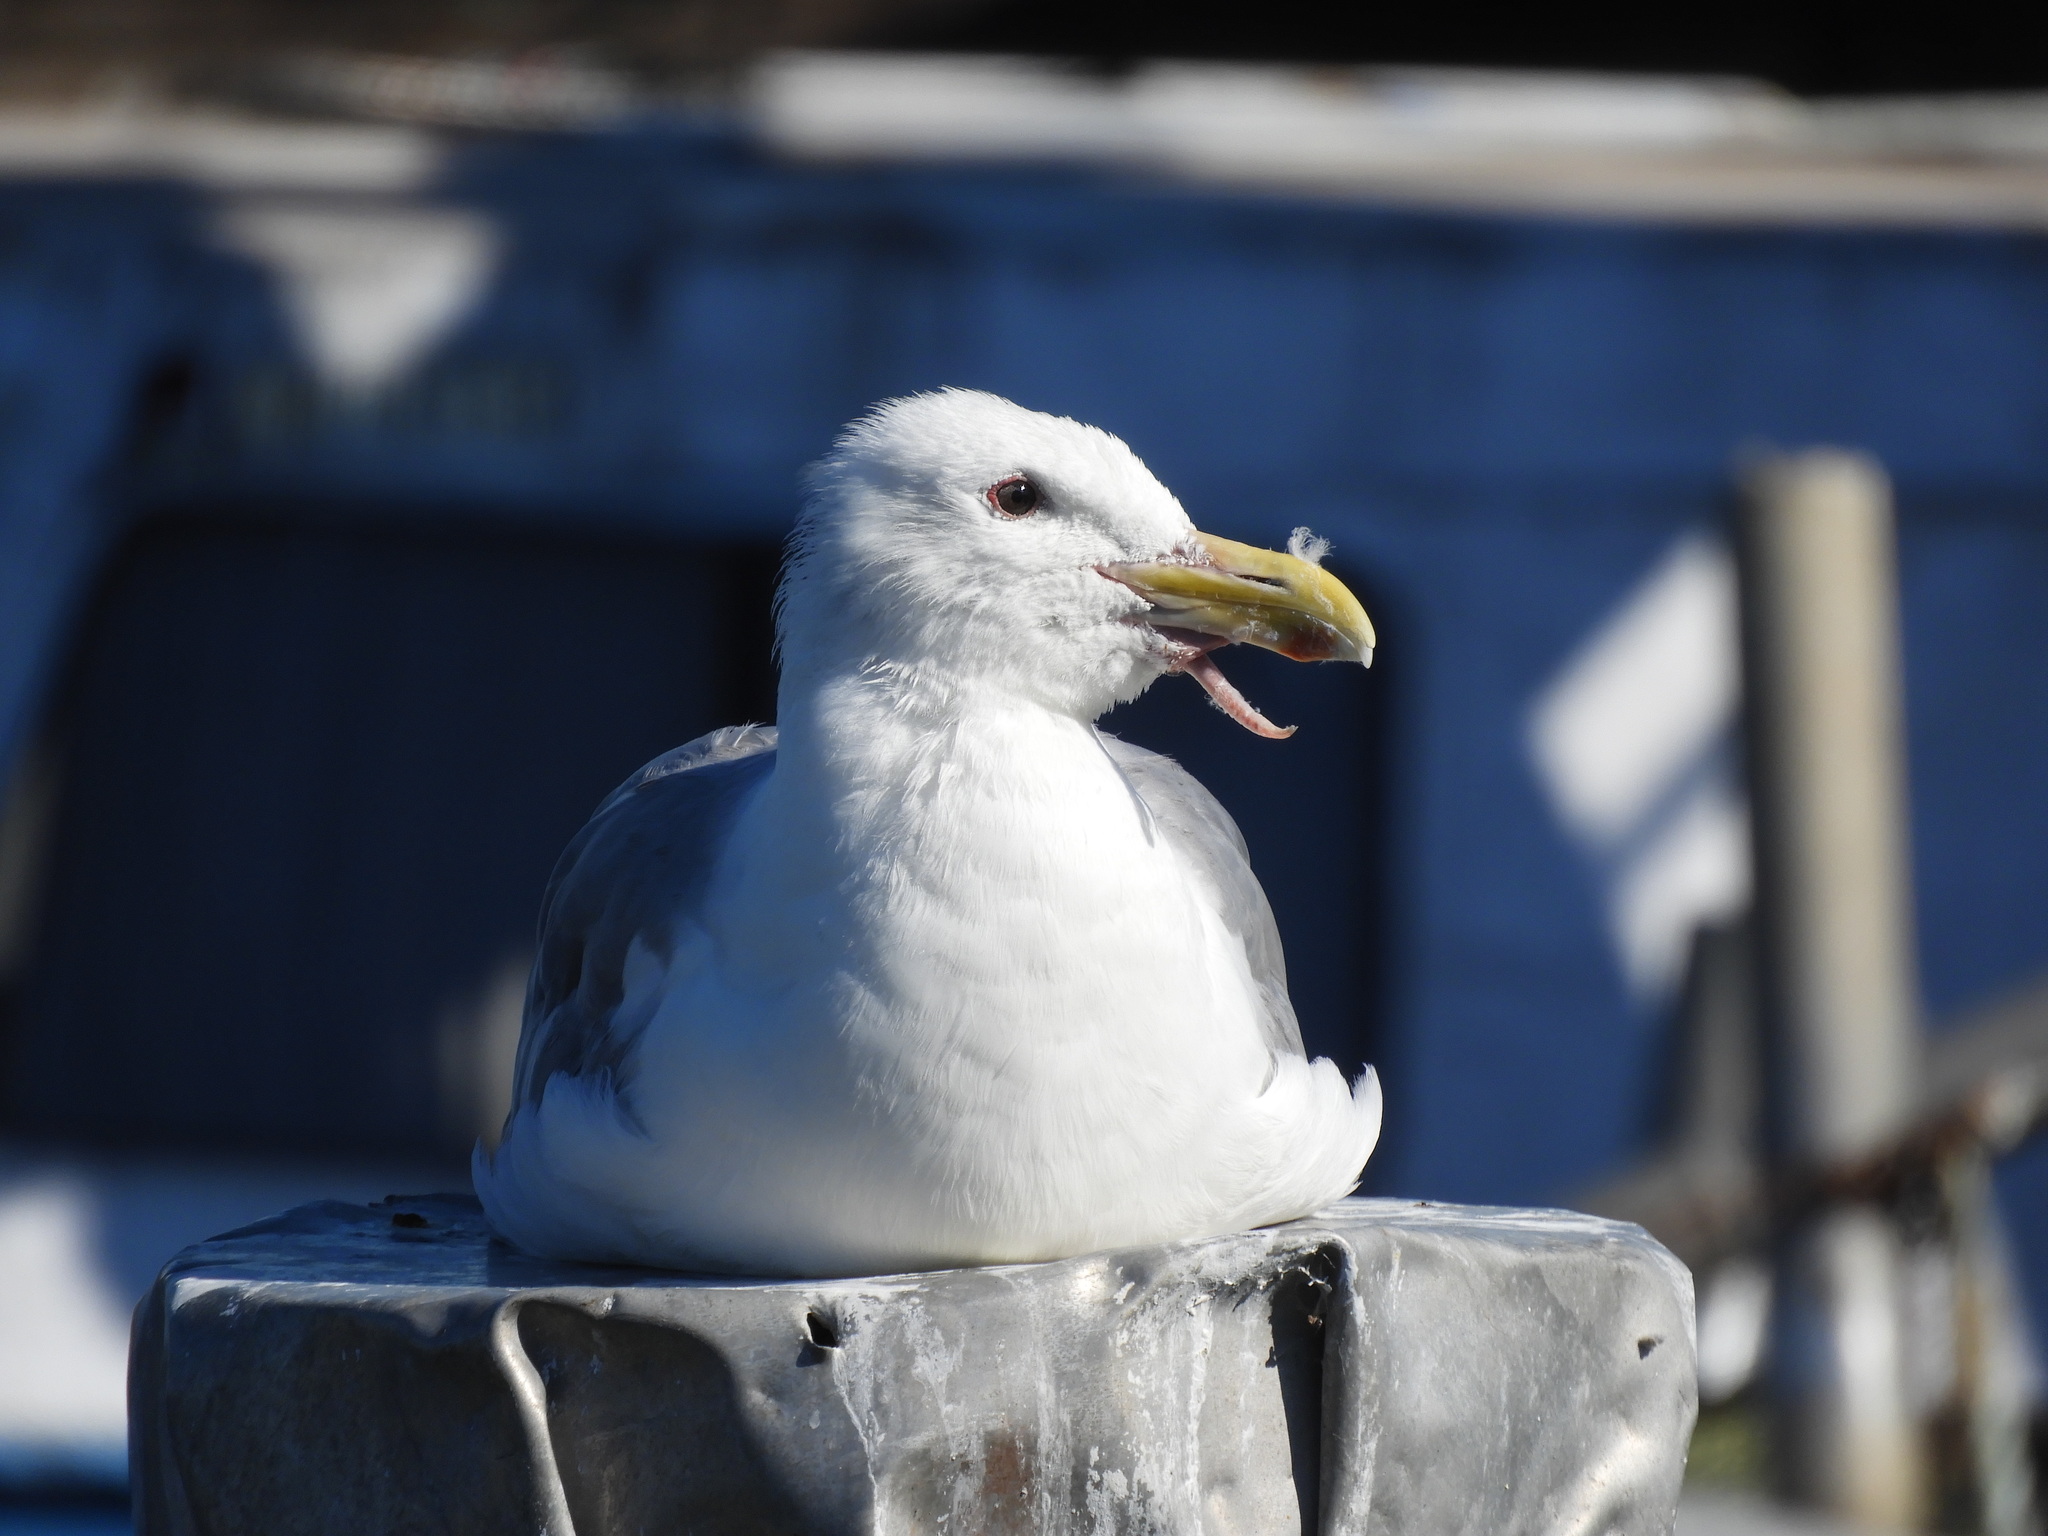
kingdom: Animalia
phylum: Chordata
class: Aves
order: Charadriiformes
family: Laridae
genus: Larus
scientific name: Larus glaucescens
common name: Glaucous-winged gull
